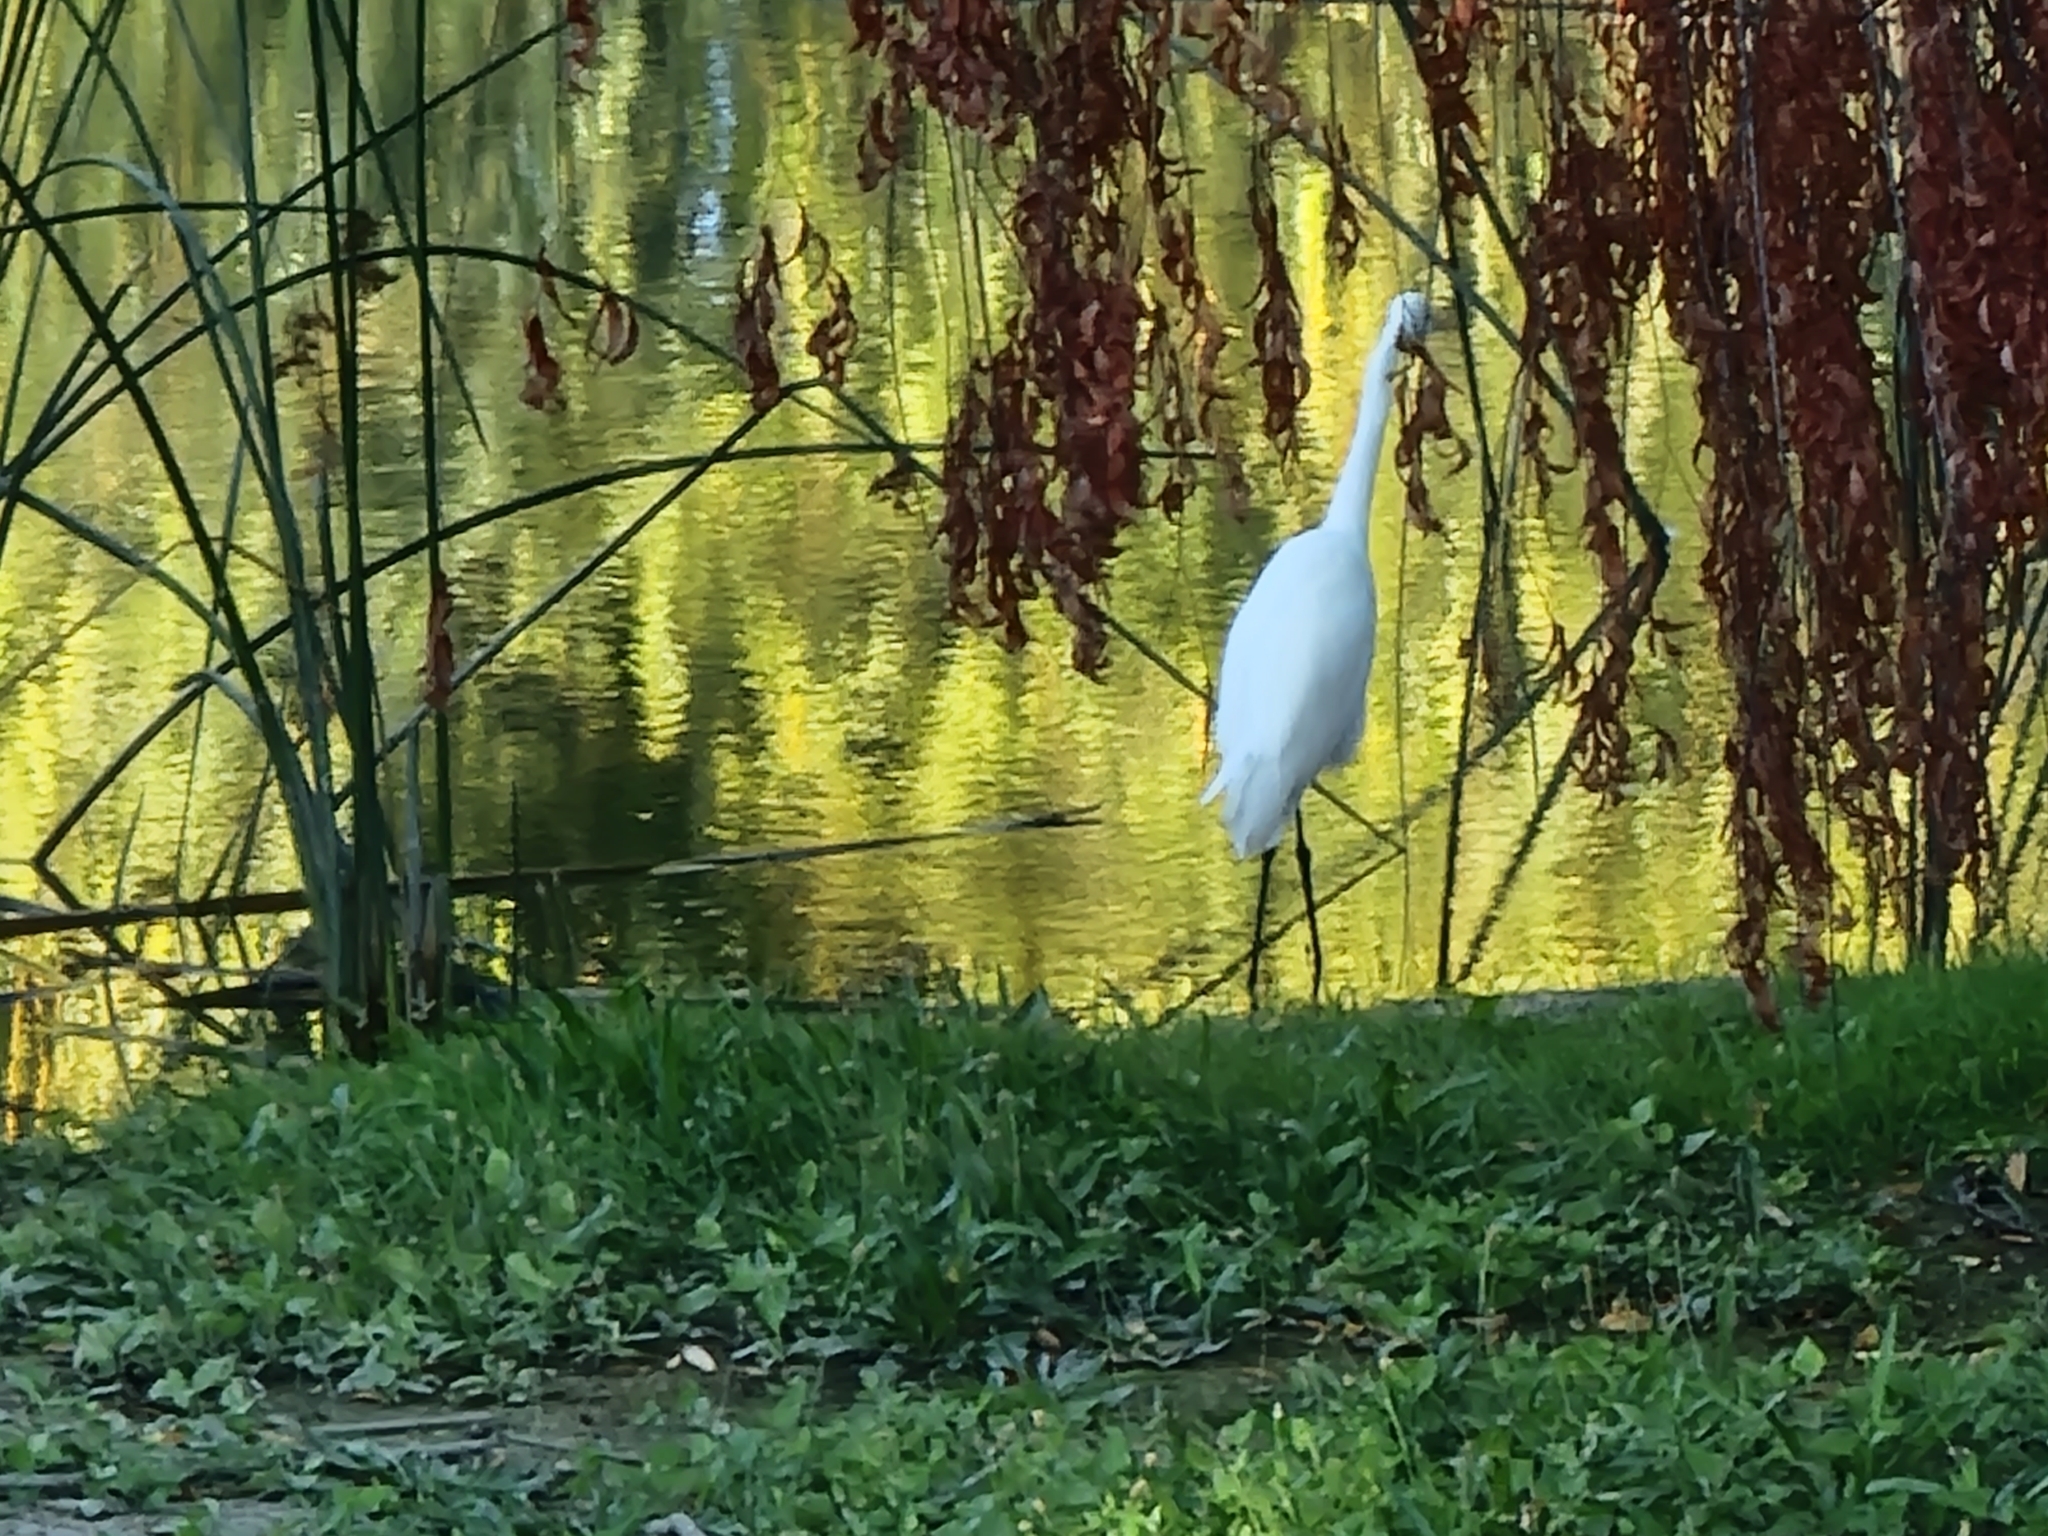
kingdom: Animalia
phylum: Chordata
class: Aves
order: Pelecaniformes
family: Ardeidae
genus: Ardea
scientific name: Ardea alba
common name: Great egret
